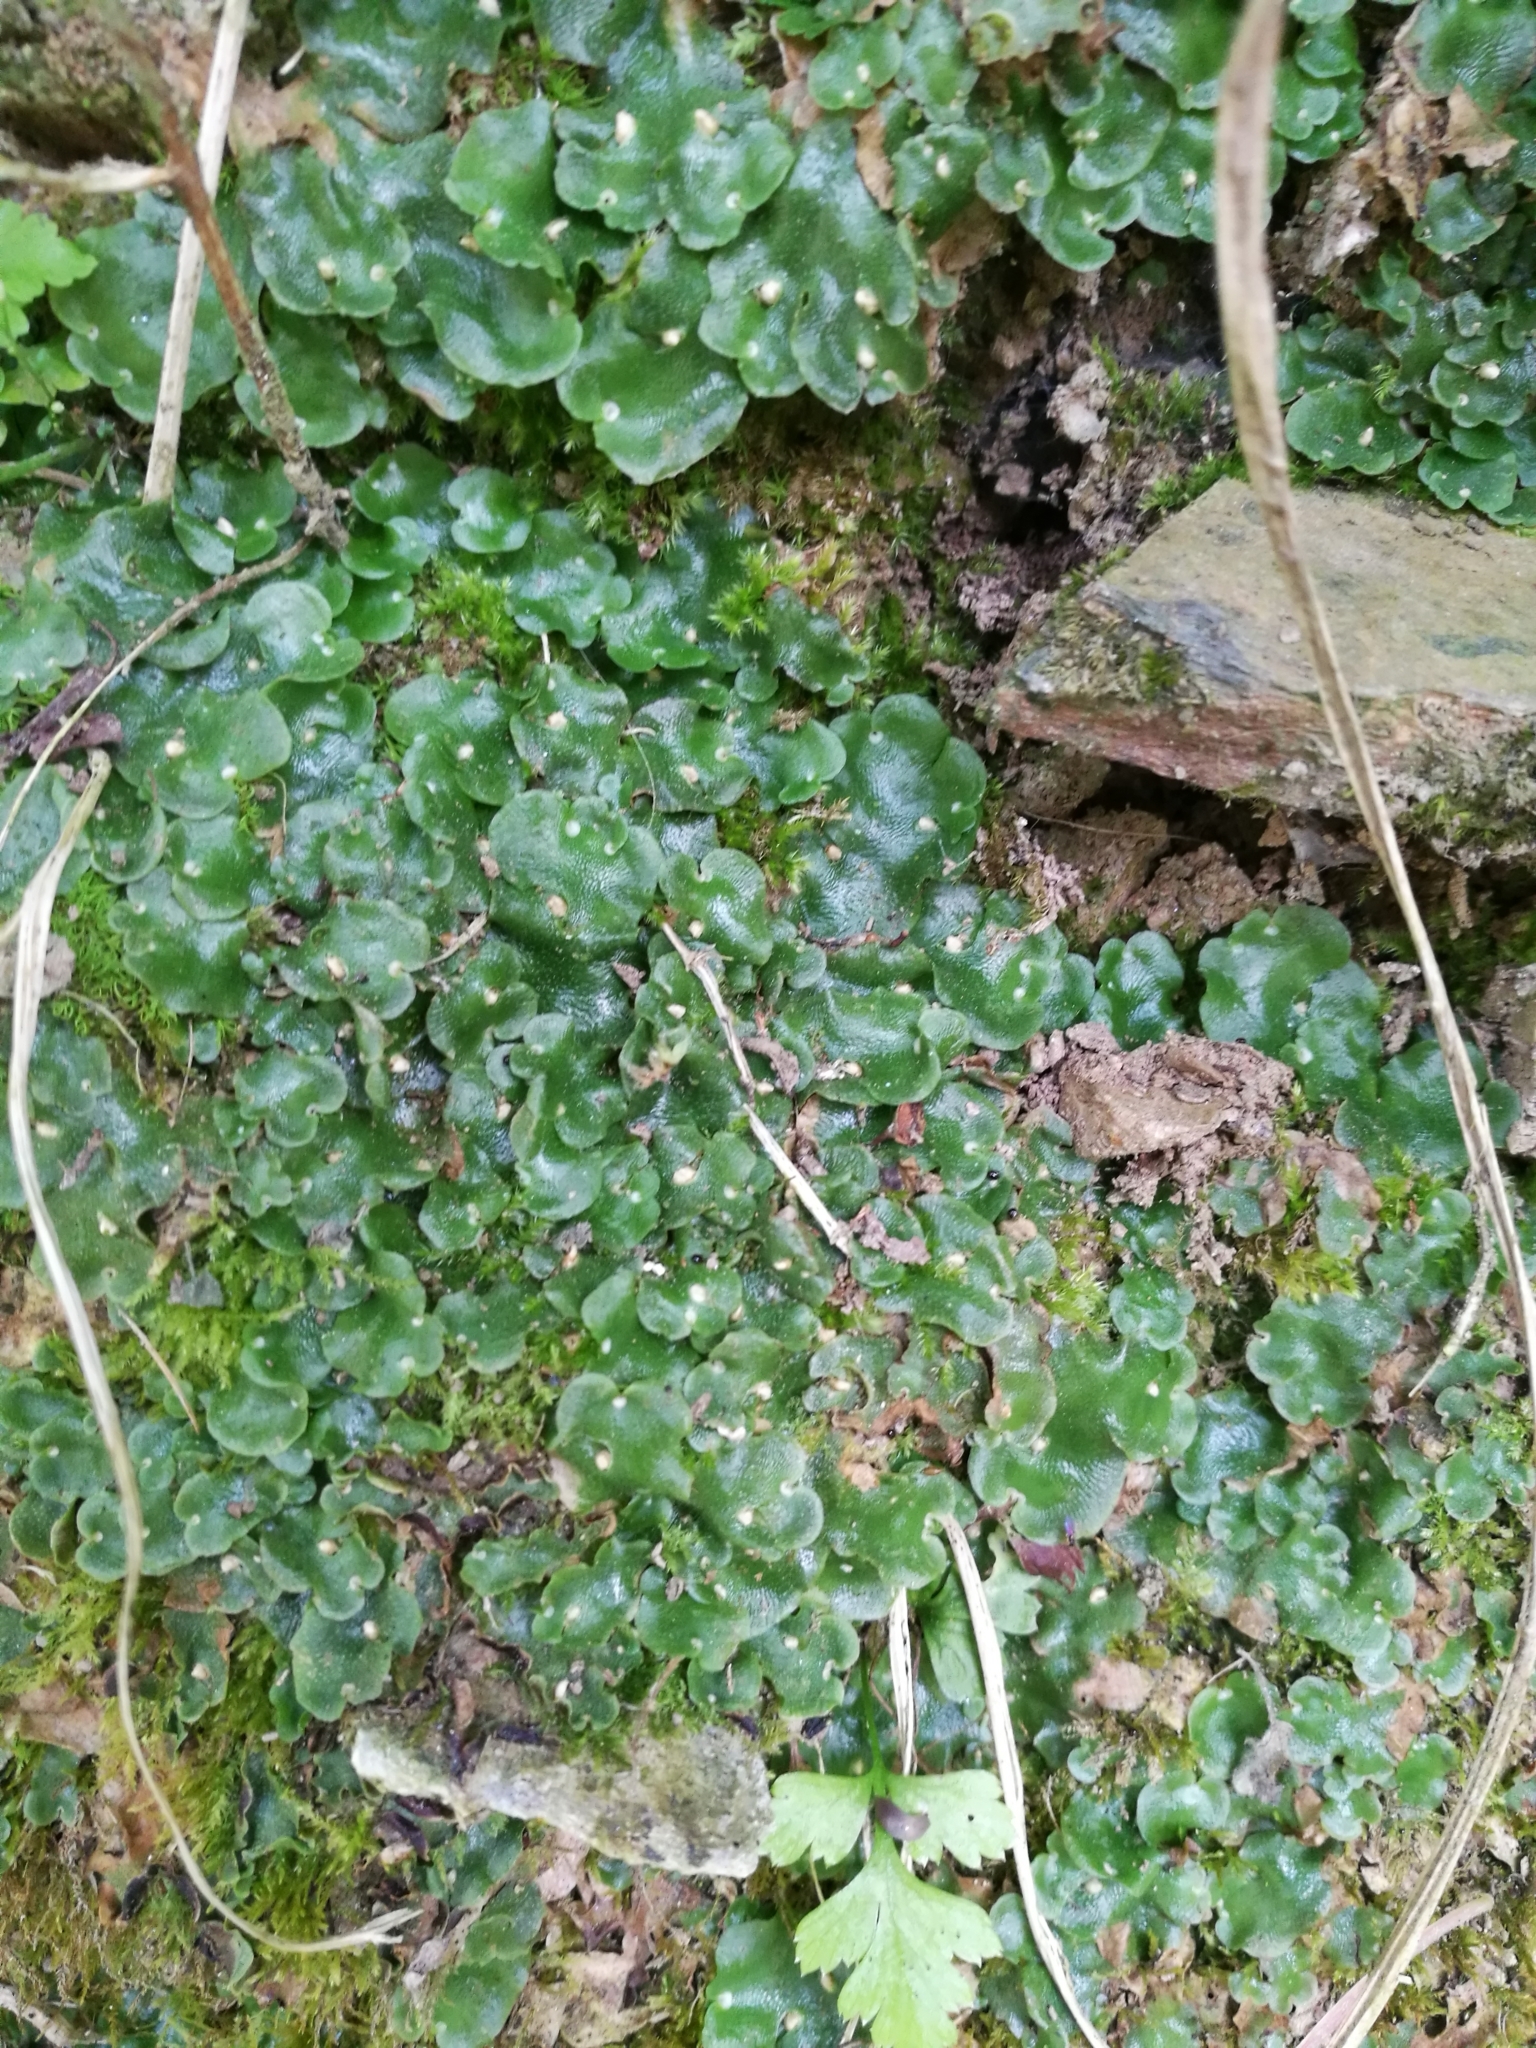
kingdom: Plantae
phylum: Marchantiophyta
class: Marchantiopsida
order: Lunulariales
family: Lunulariaceae
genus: Lunularia
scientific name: Lunularia cruciata
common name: Crescent-cup liverwort
